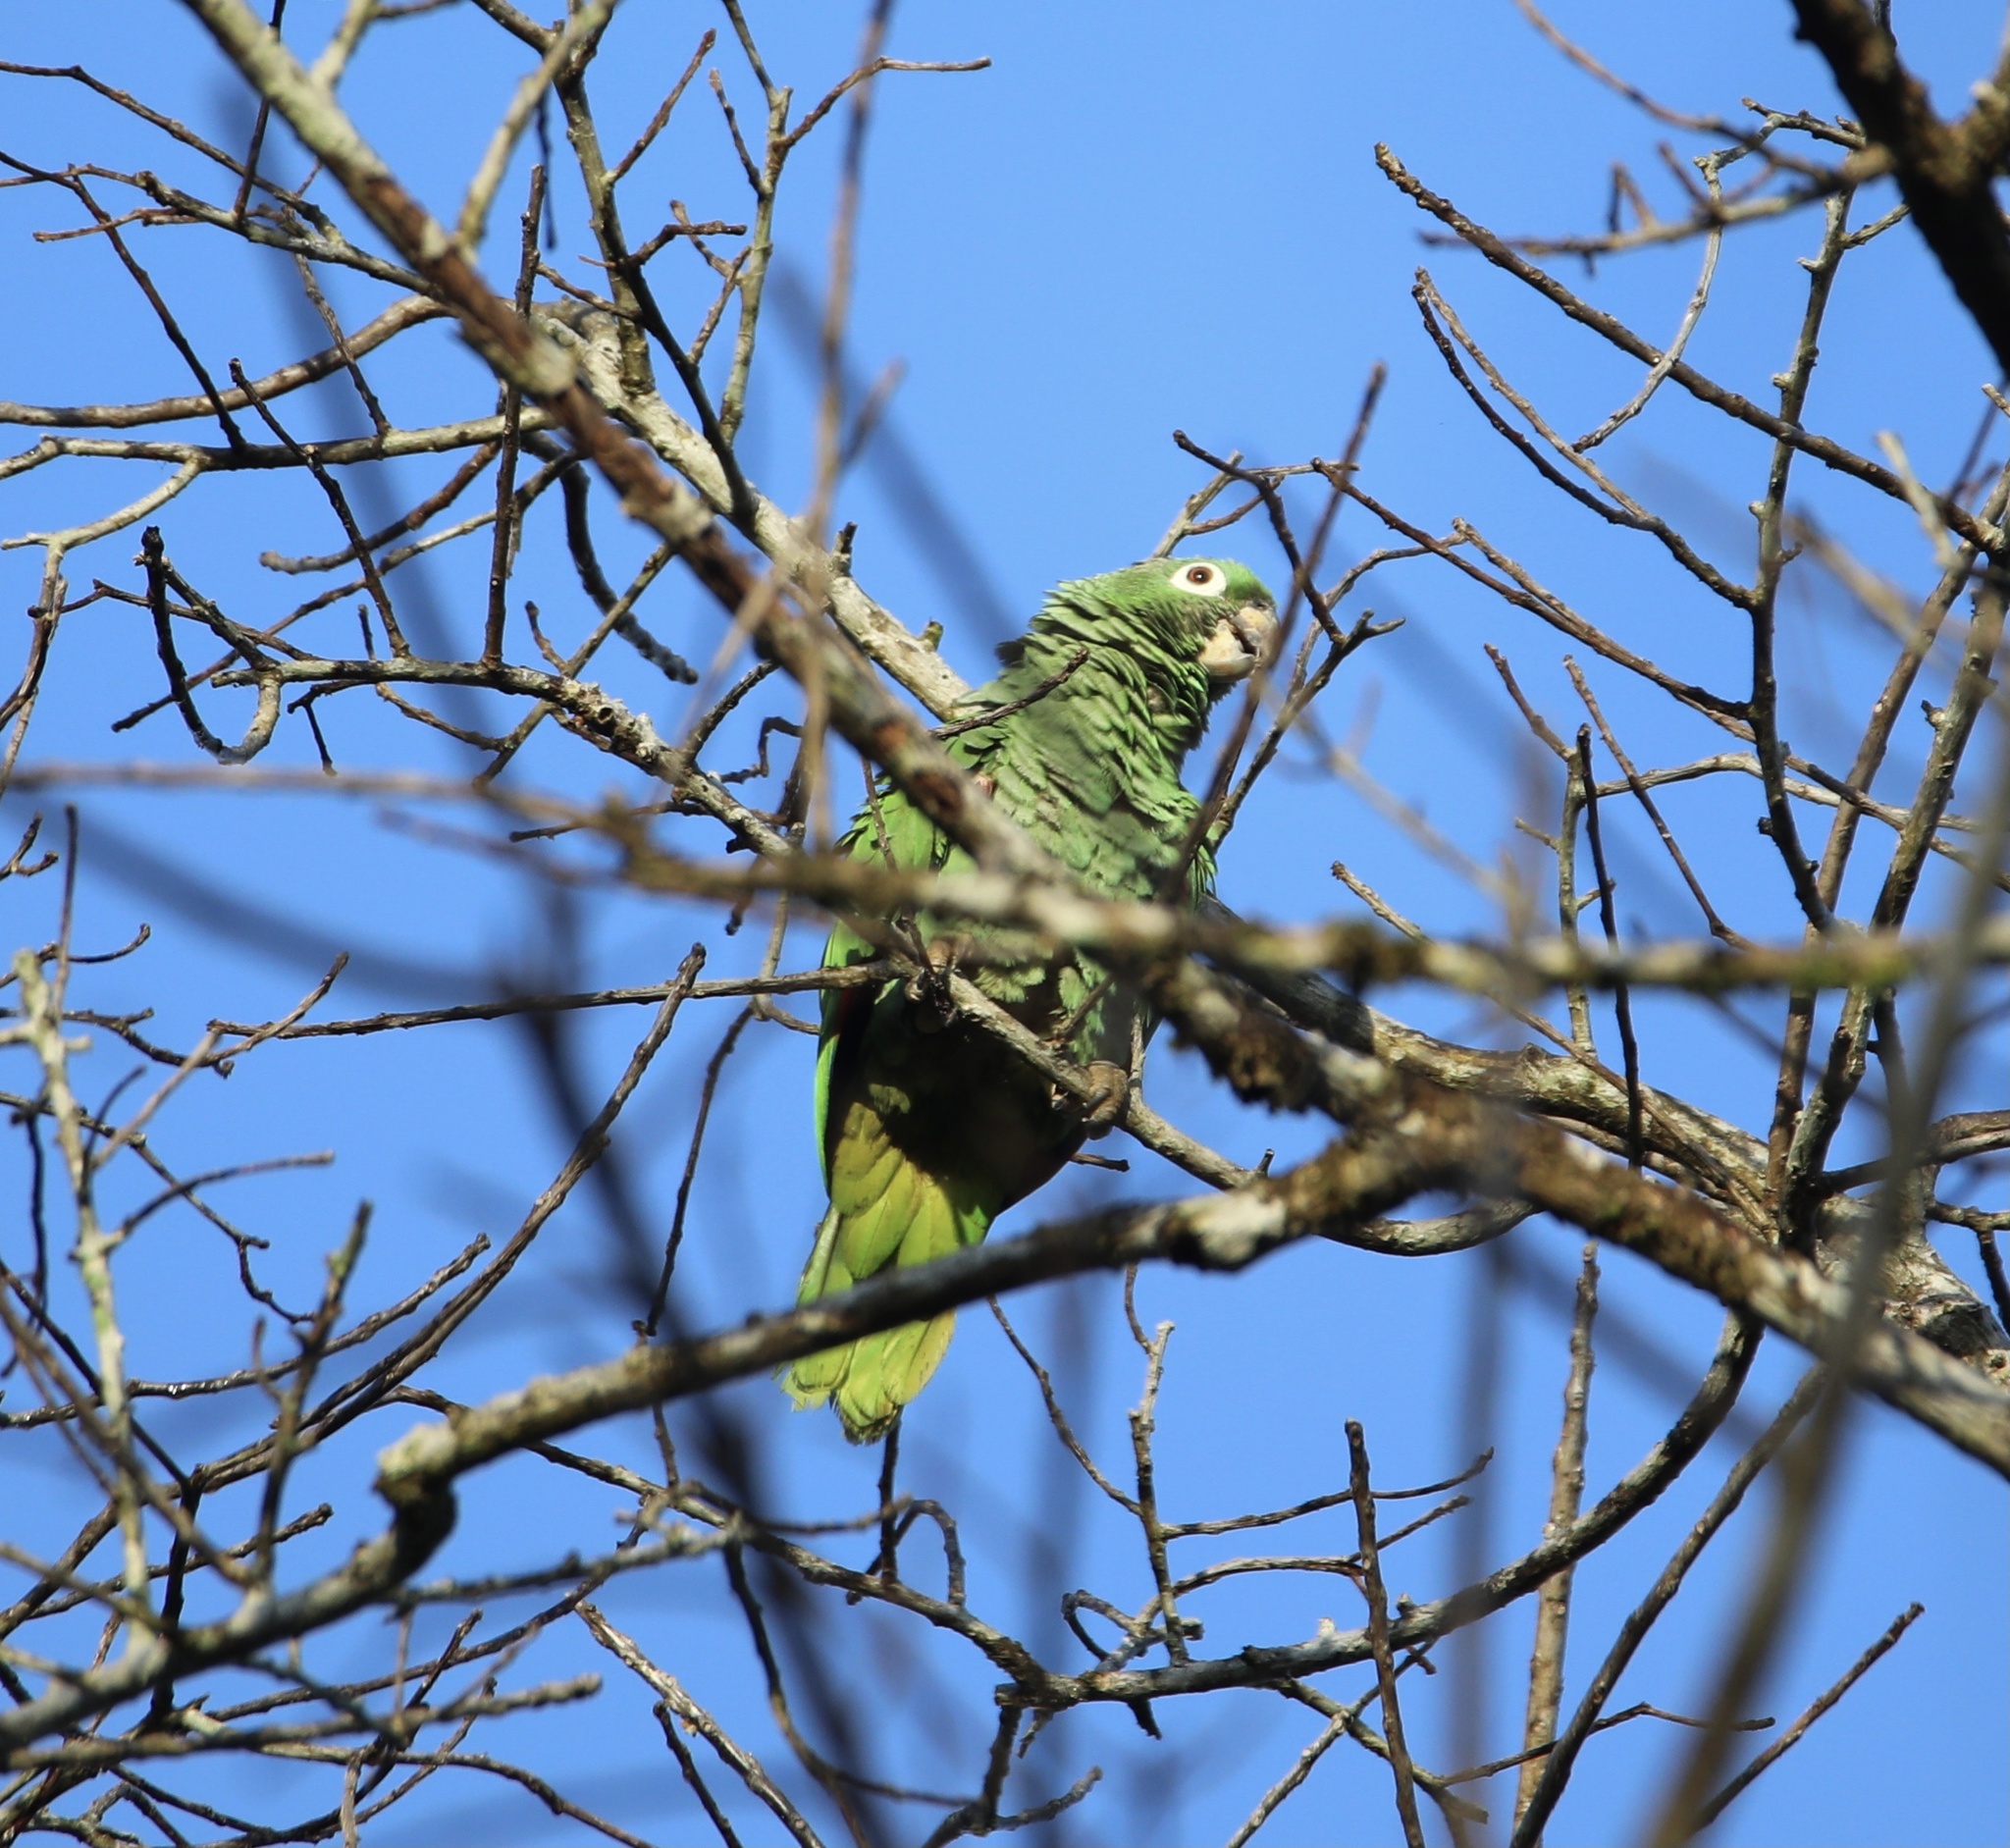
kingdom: Animalia
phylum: Chordata
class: Aves
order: Psittaciformes
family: Psittacidae
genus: Amazona
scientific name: Amazona farinosa
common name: Mealy parrot
